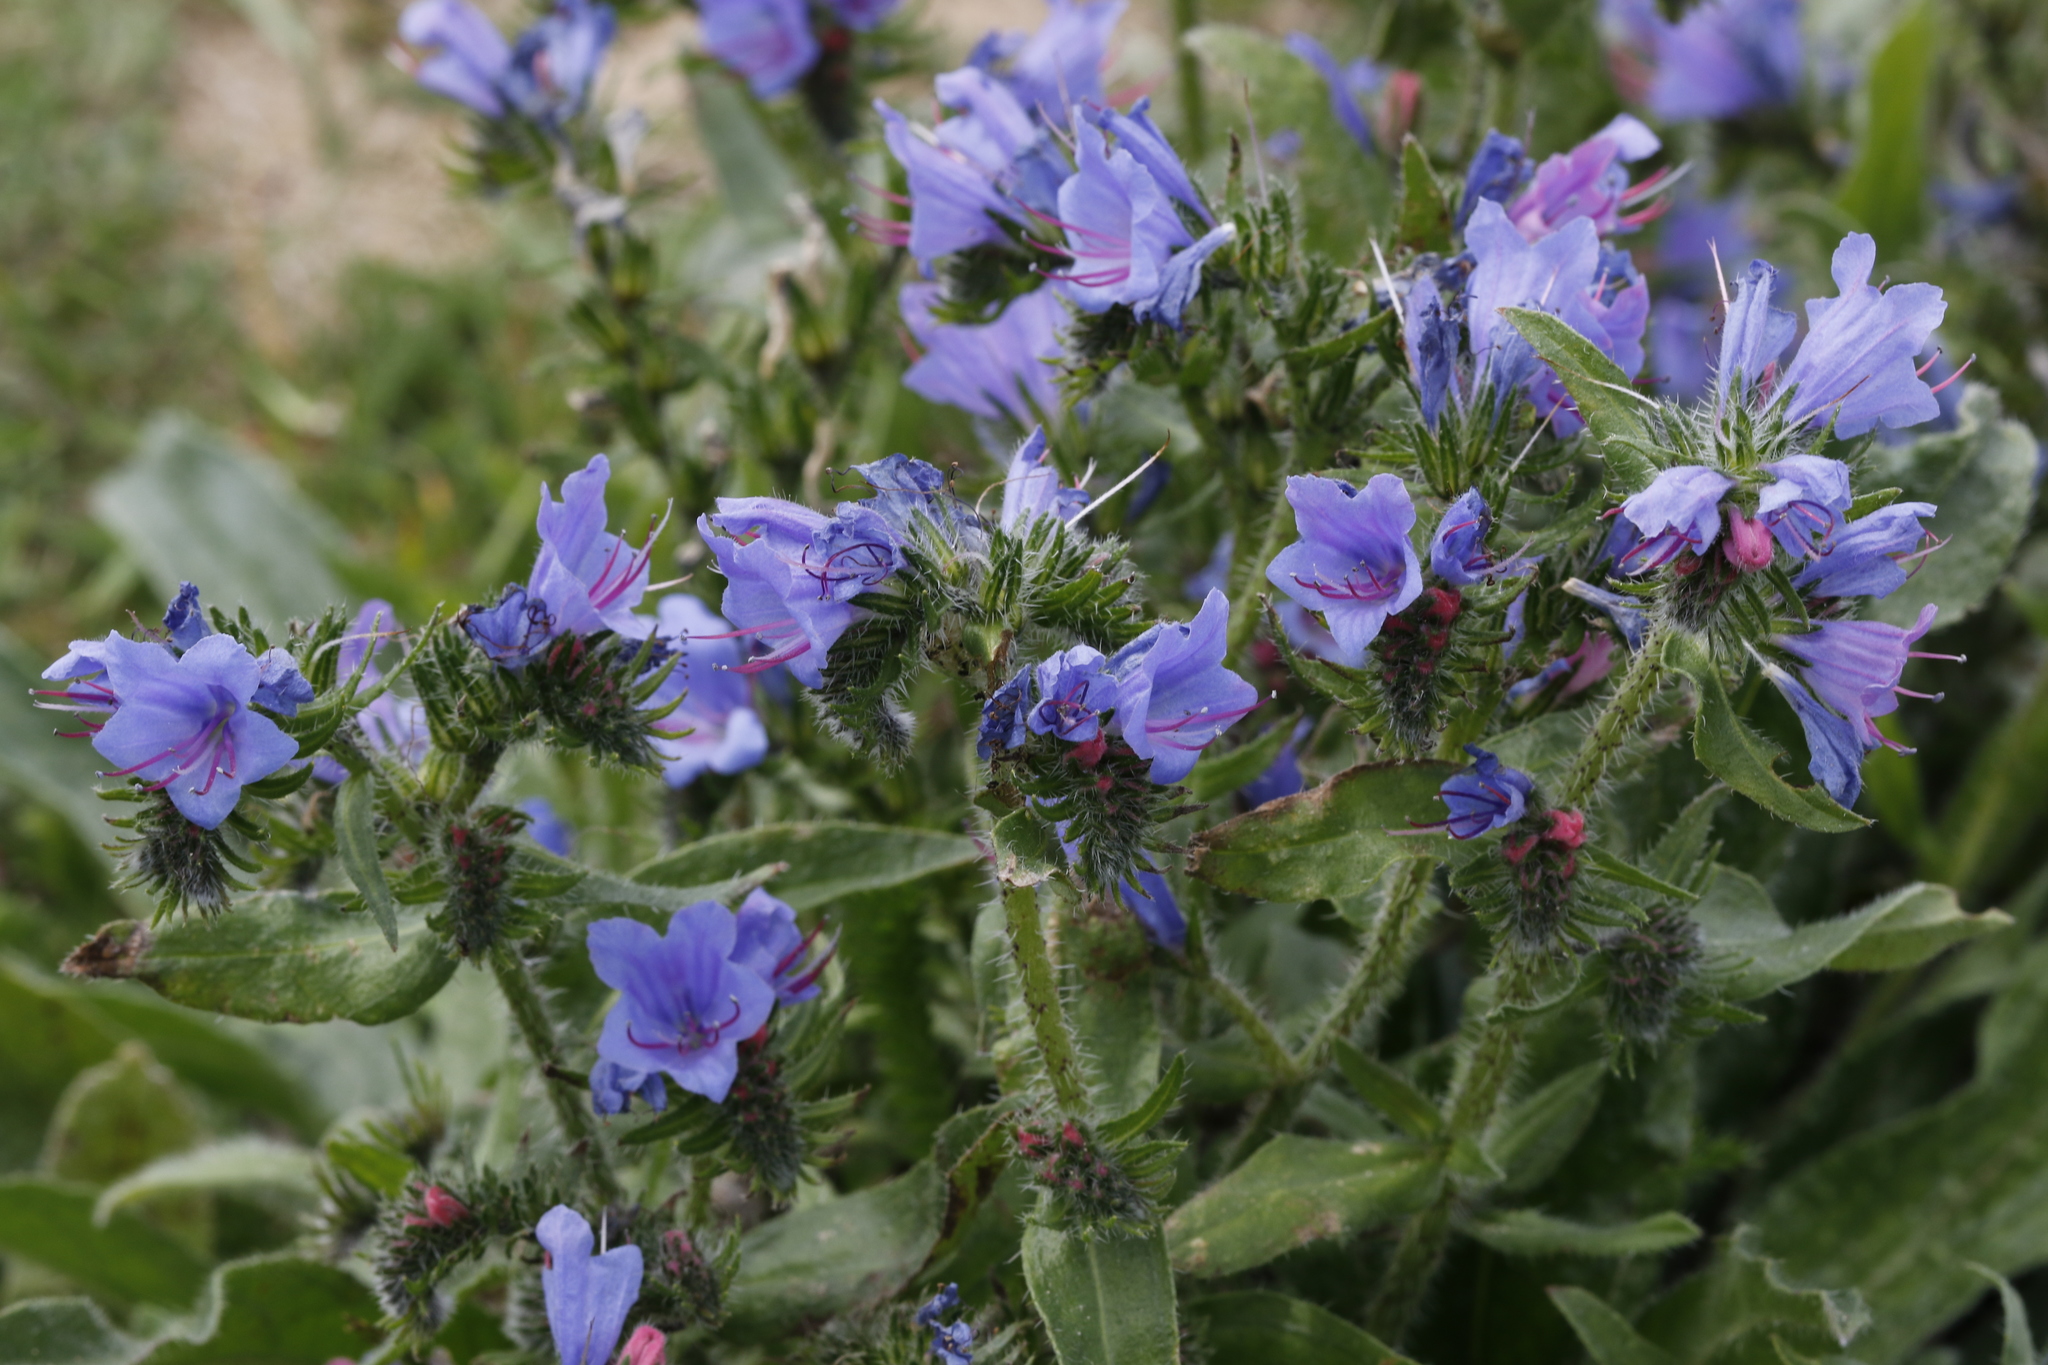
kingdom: Plantae
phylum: Tracheophyta
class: Magnoliopsida
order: Boraginales
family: Boraginaceae
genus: Echium
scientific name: Echium vulgare
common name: Common viper's bugloss
